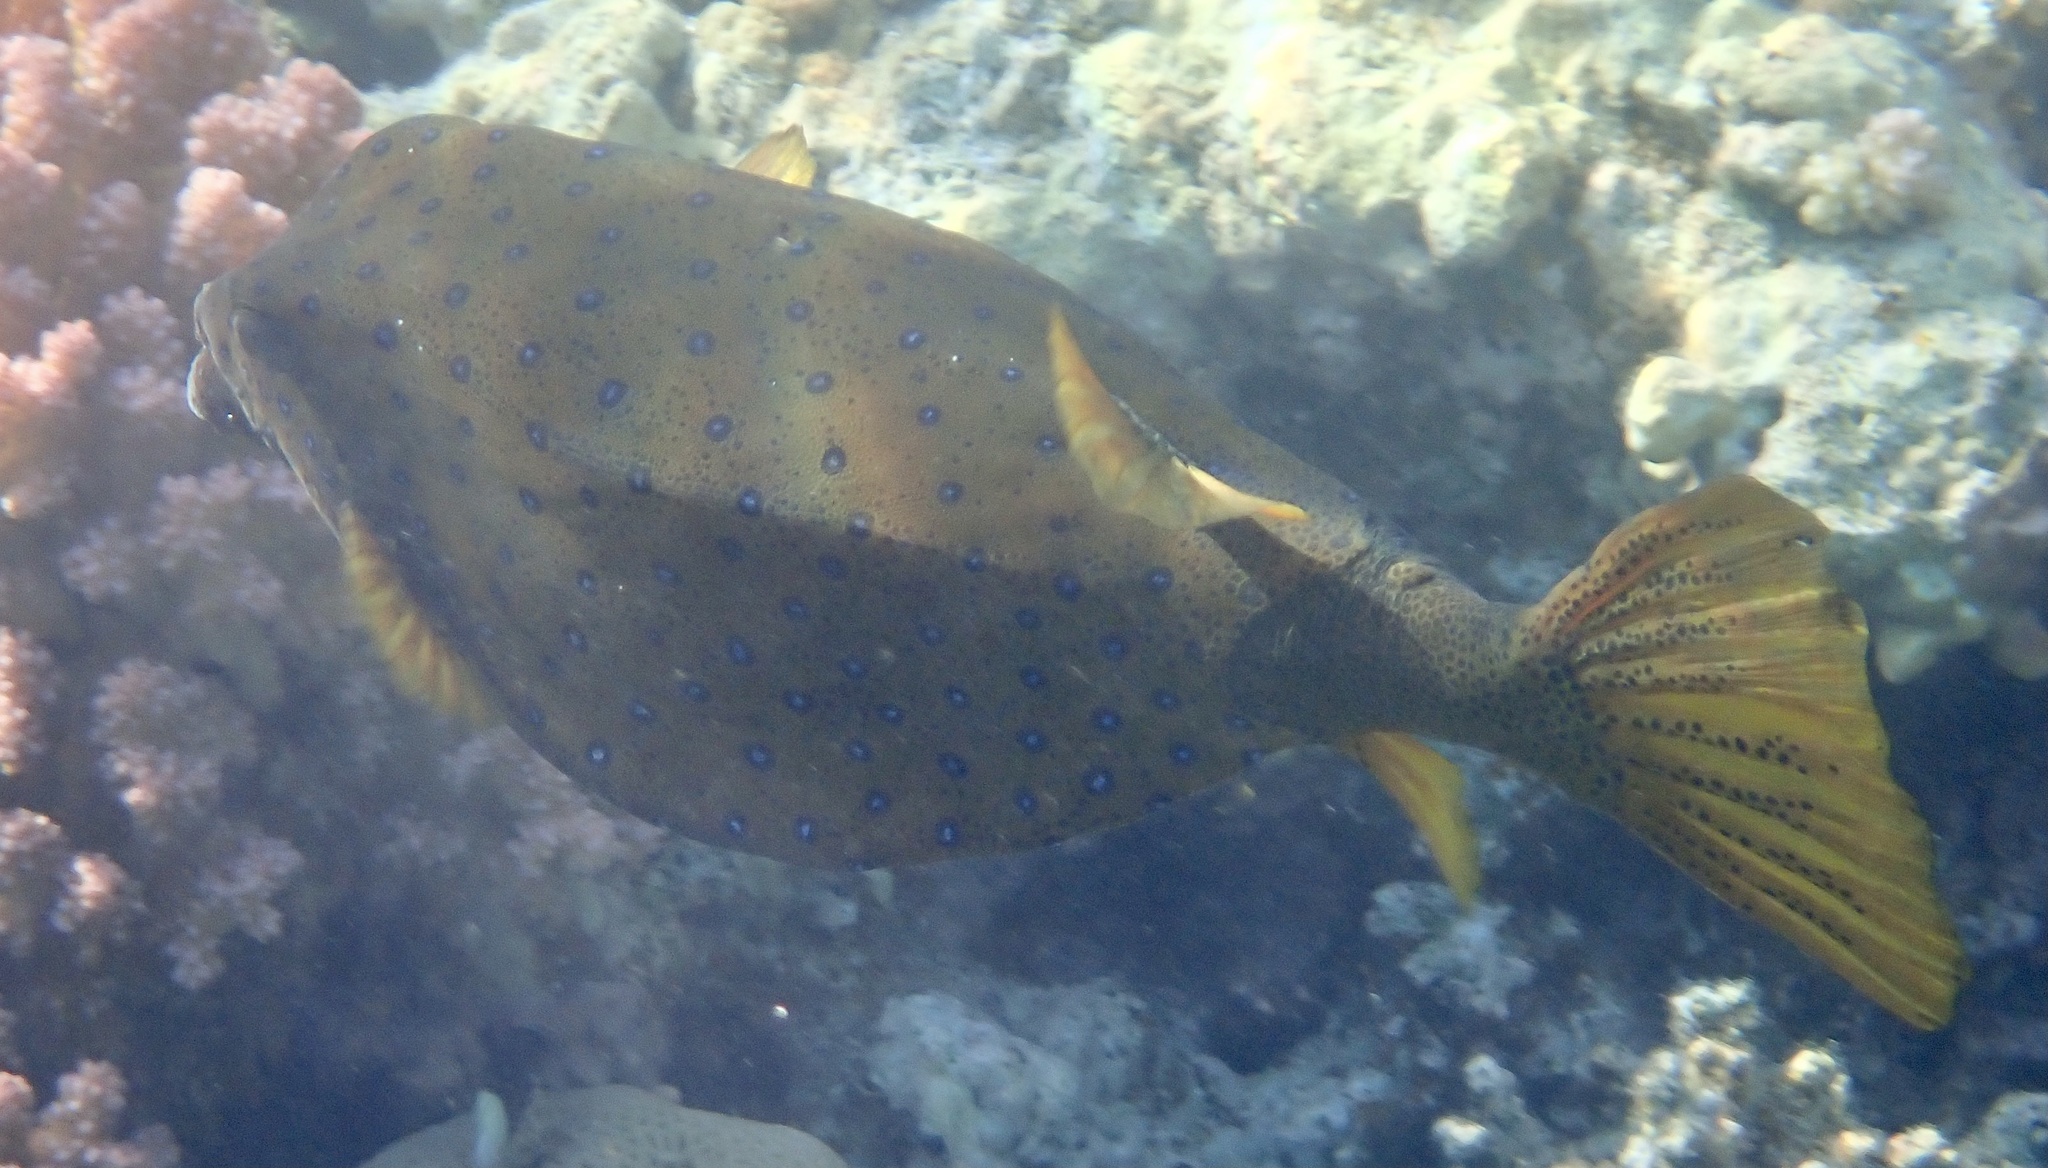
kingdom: Animalia
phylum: Chordata
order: Tetraodontiformes
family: Ostraciidae
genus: Ostracion
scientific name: Ostracion cubicus
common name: Cube trunkfish
